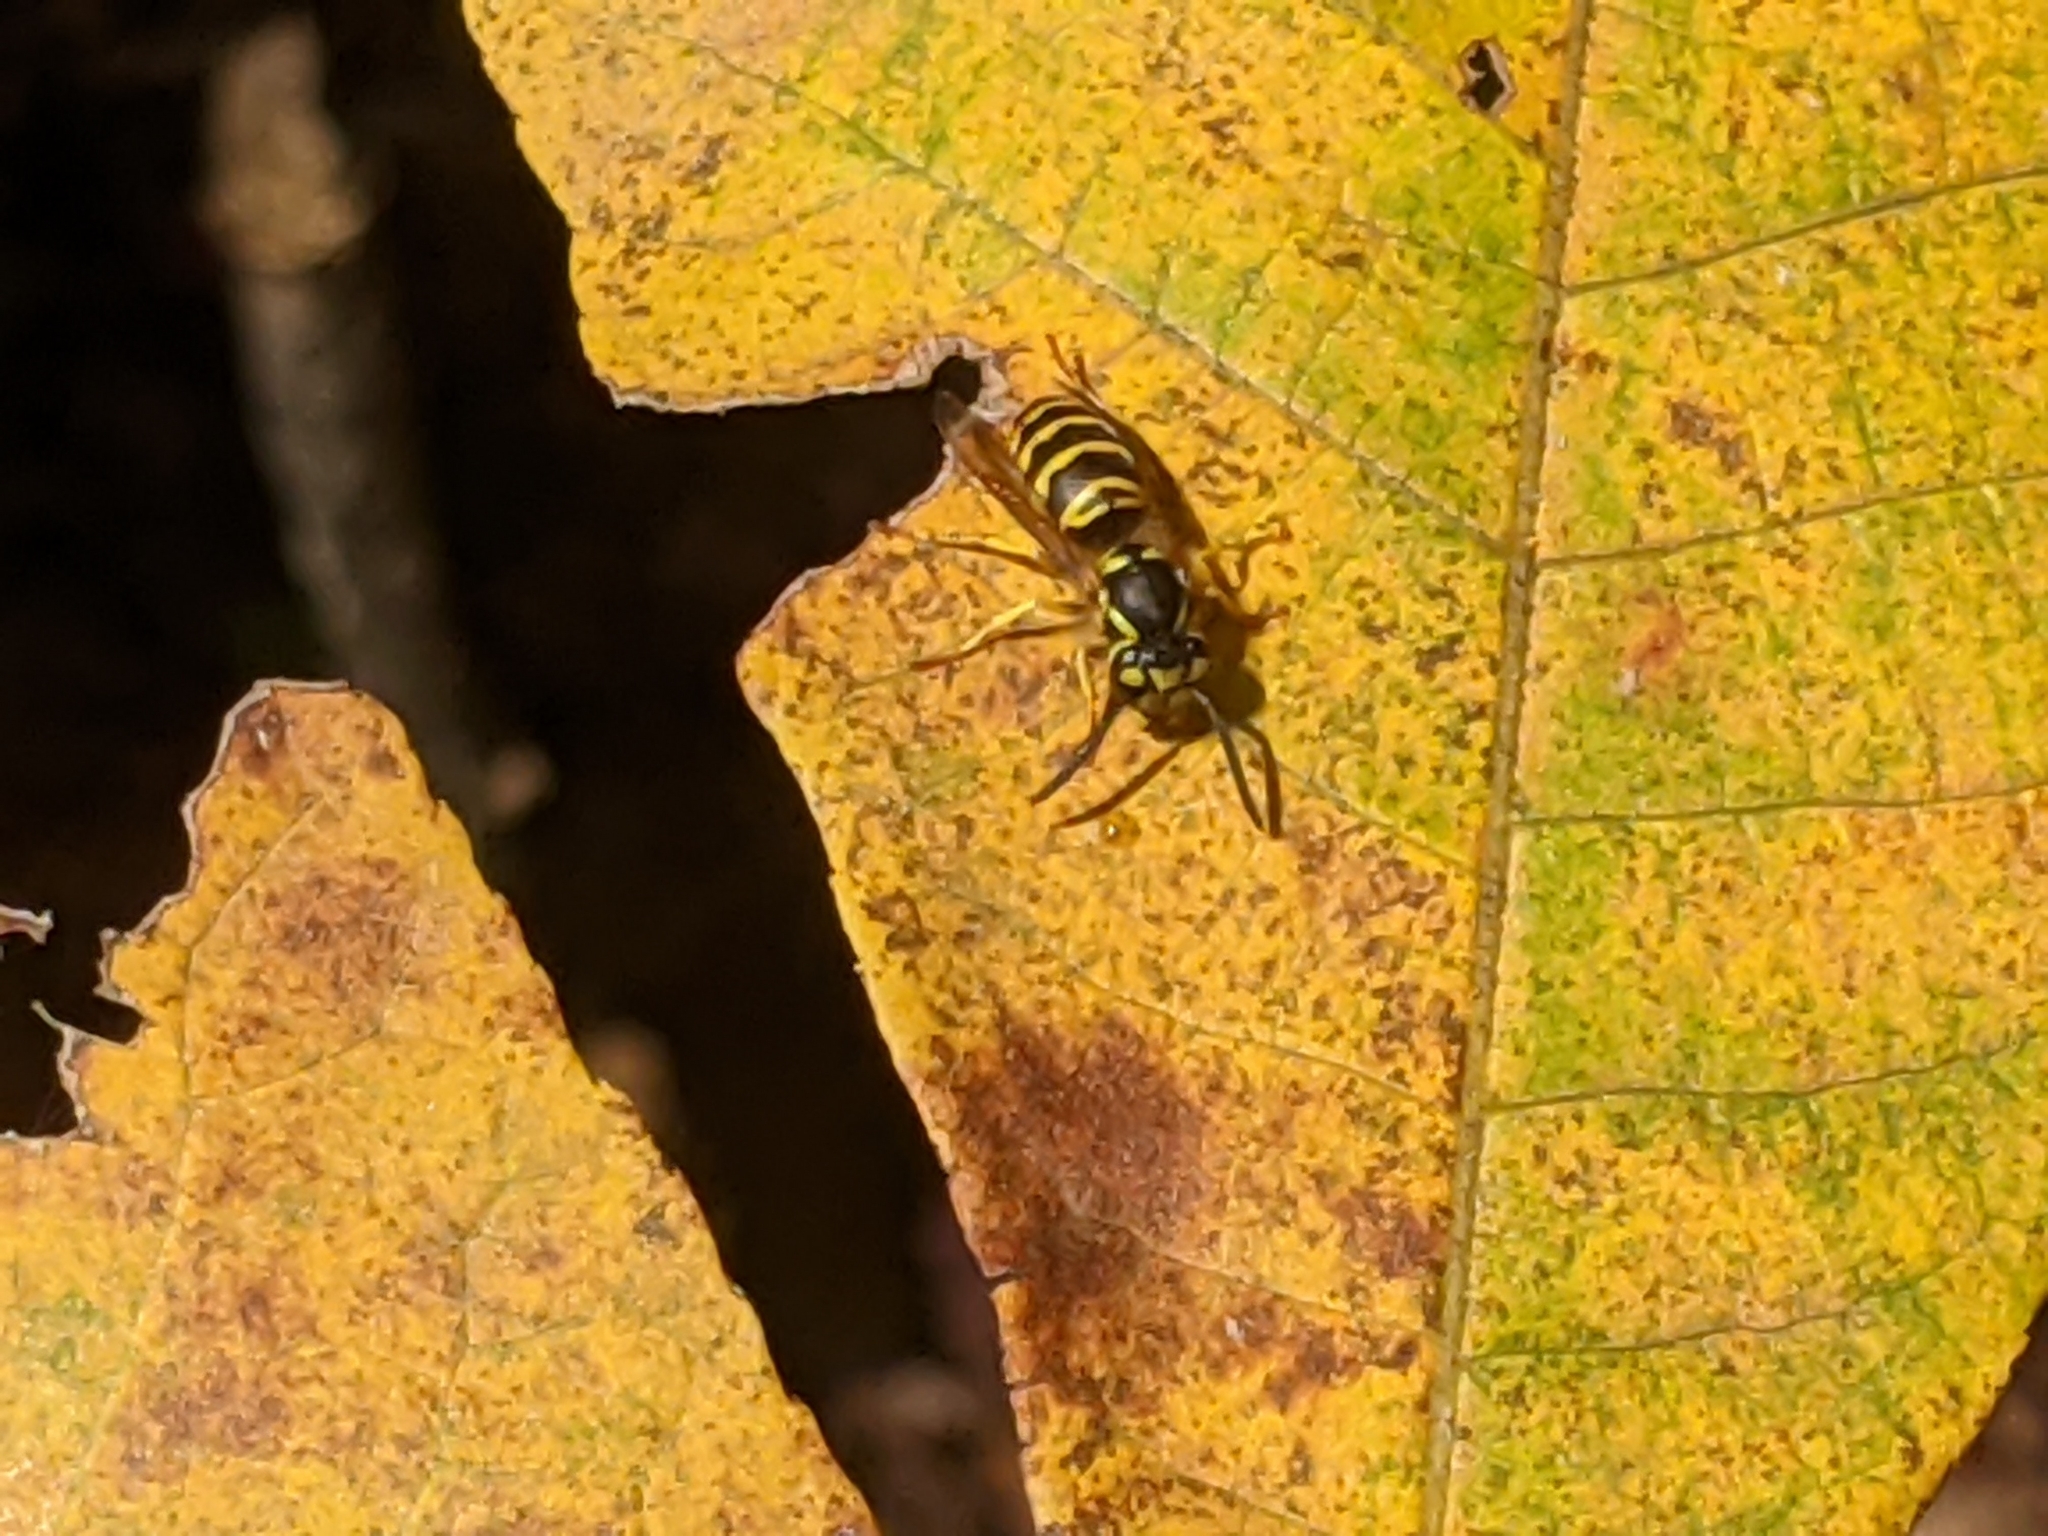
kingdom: Animalia
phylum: Arthropoda
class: Insecta
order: Hymenoptera
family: Vespidae
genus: Vespula
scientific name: Vespula maculifrons
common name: Eastern yellowjacket
